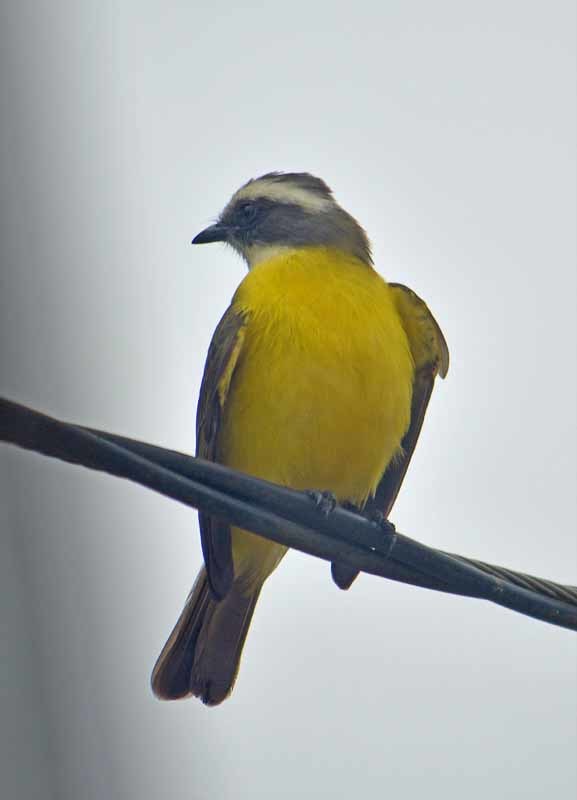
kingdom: Animalia
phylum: Chordata
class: Aves
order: Passeriformes
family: Tyrannidae
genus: Myiozetetes
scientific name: Myiozetetes similis
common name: Social flycatcher
